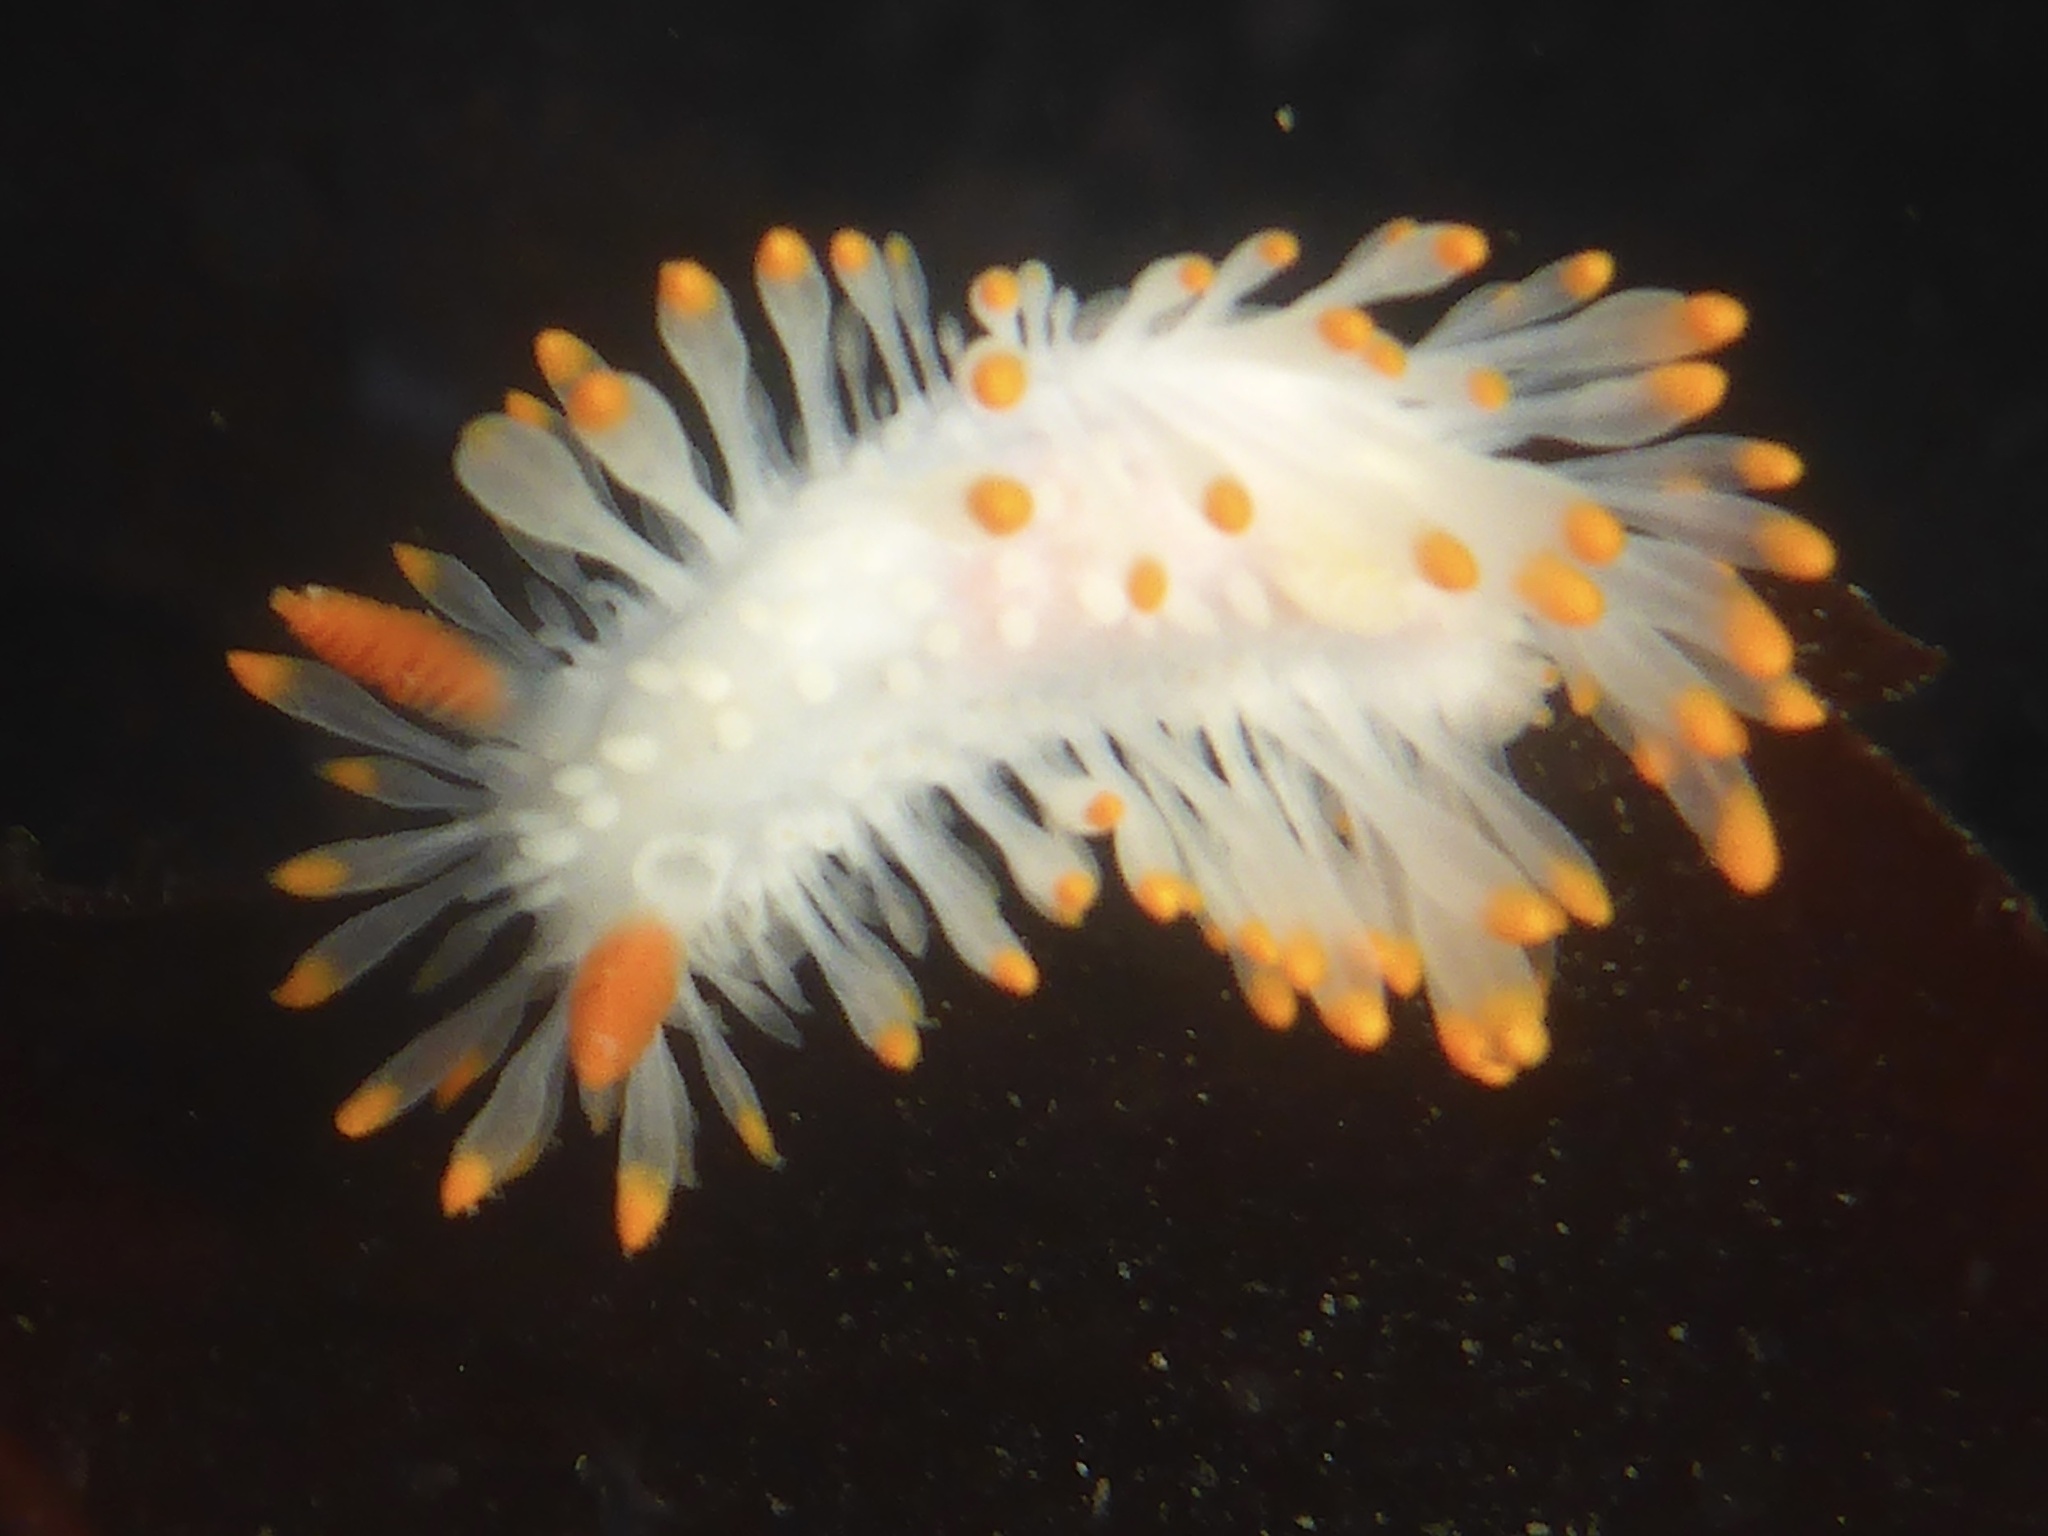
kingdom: Animalia
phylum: Mollusca
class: Gastropoda
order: Nudibranchia
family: Polyceridae
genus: Limacia
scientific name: Limacia cockerelli
